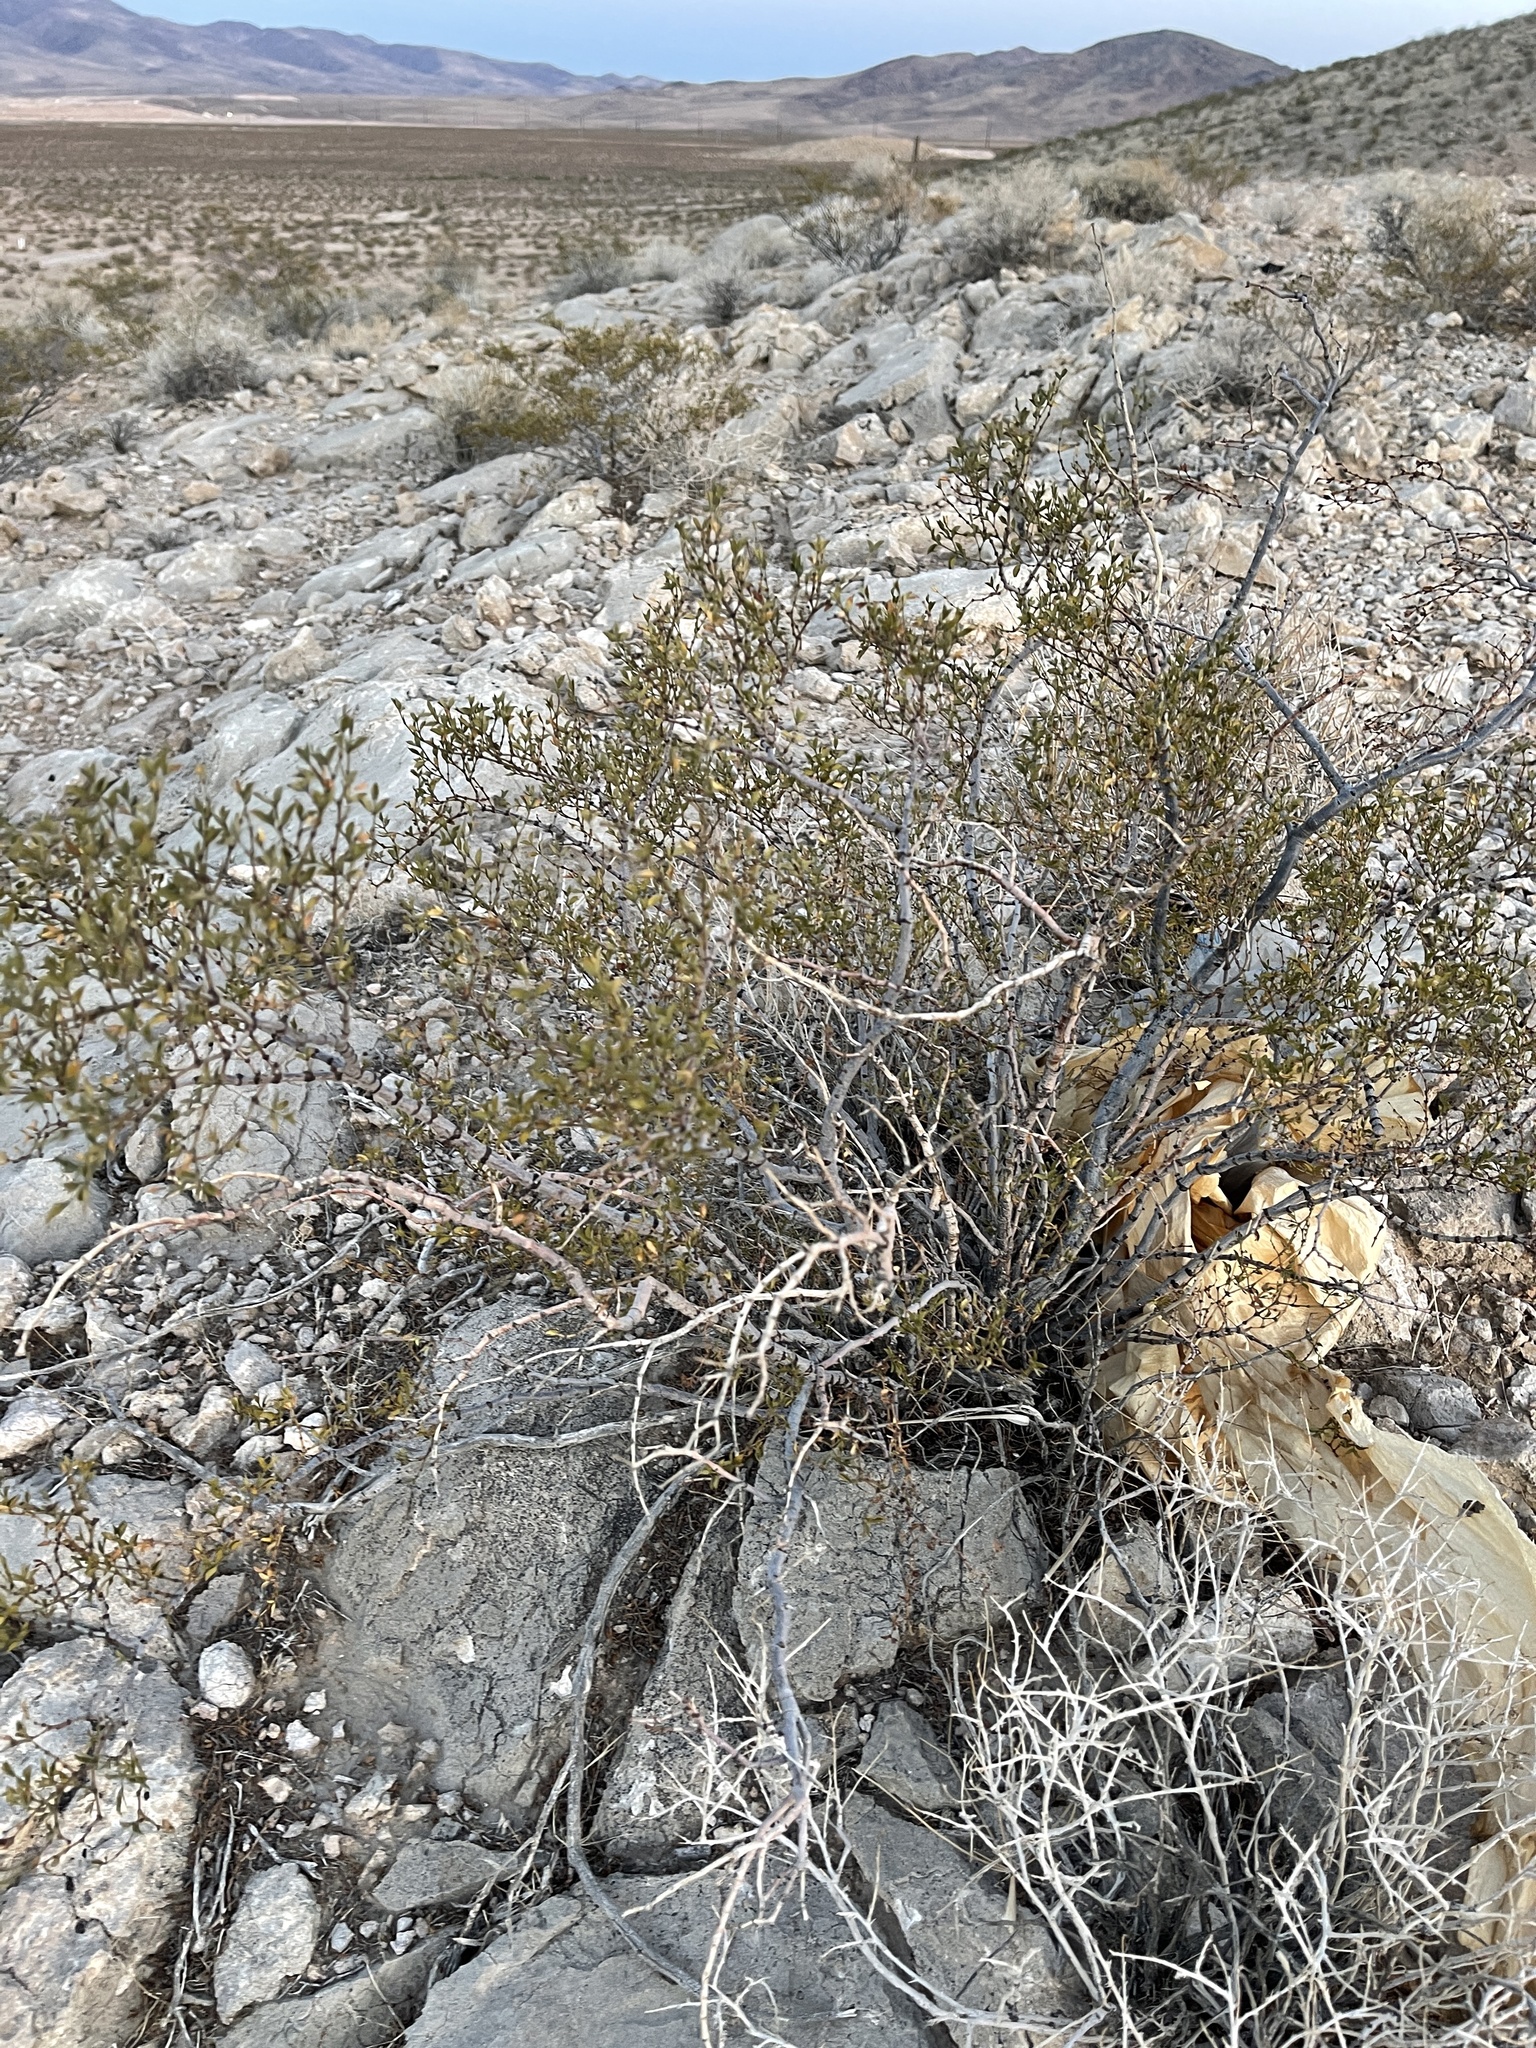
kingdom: Plantae
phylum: Tracheophyta
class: Magnoliopsida
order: Zygophyllales
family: Zygophyllaceae
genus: Larrea
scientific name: Larrea tridentata
